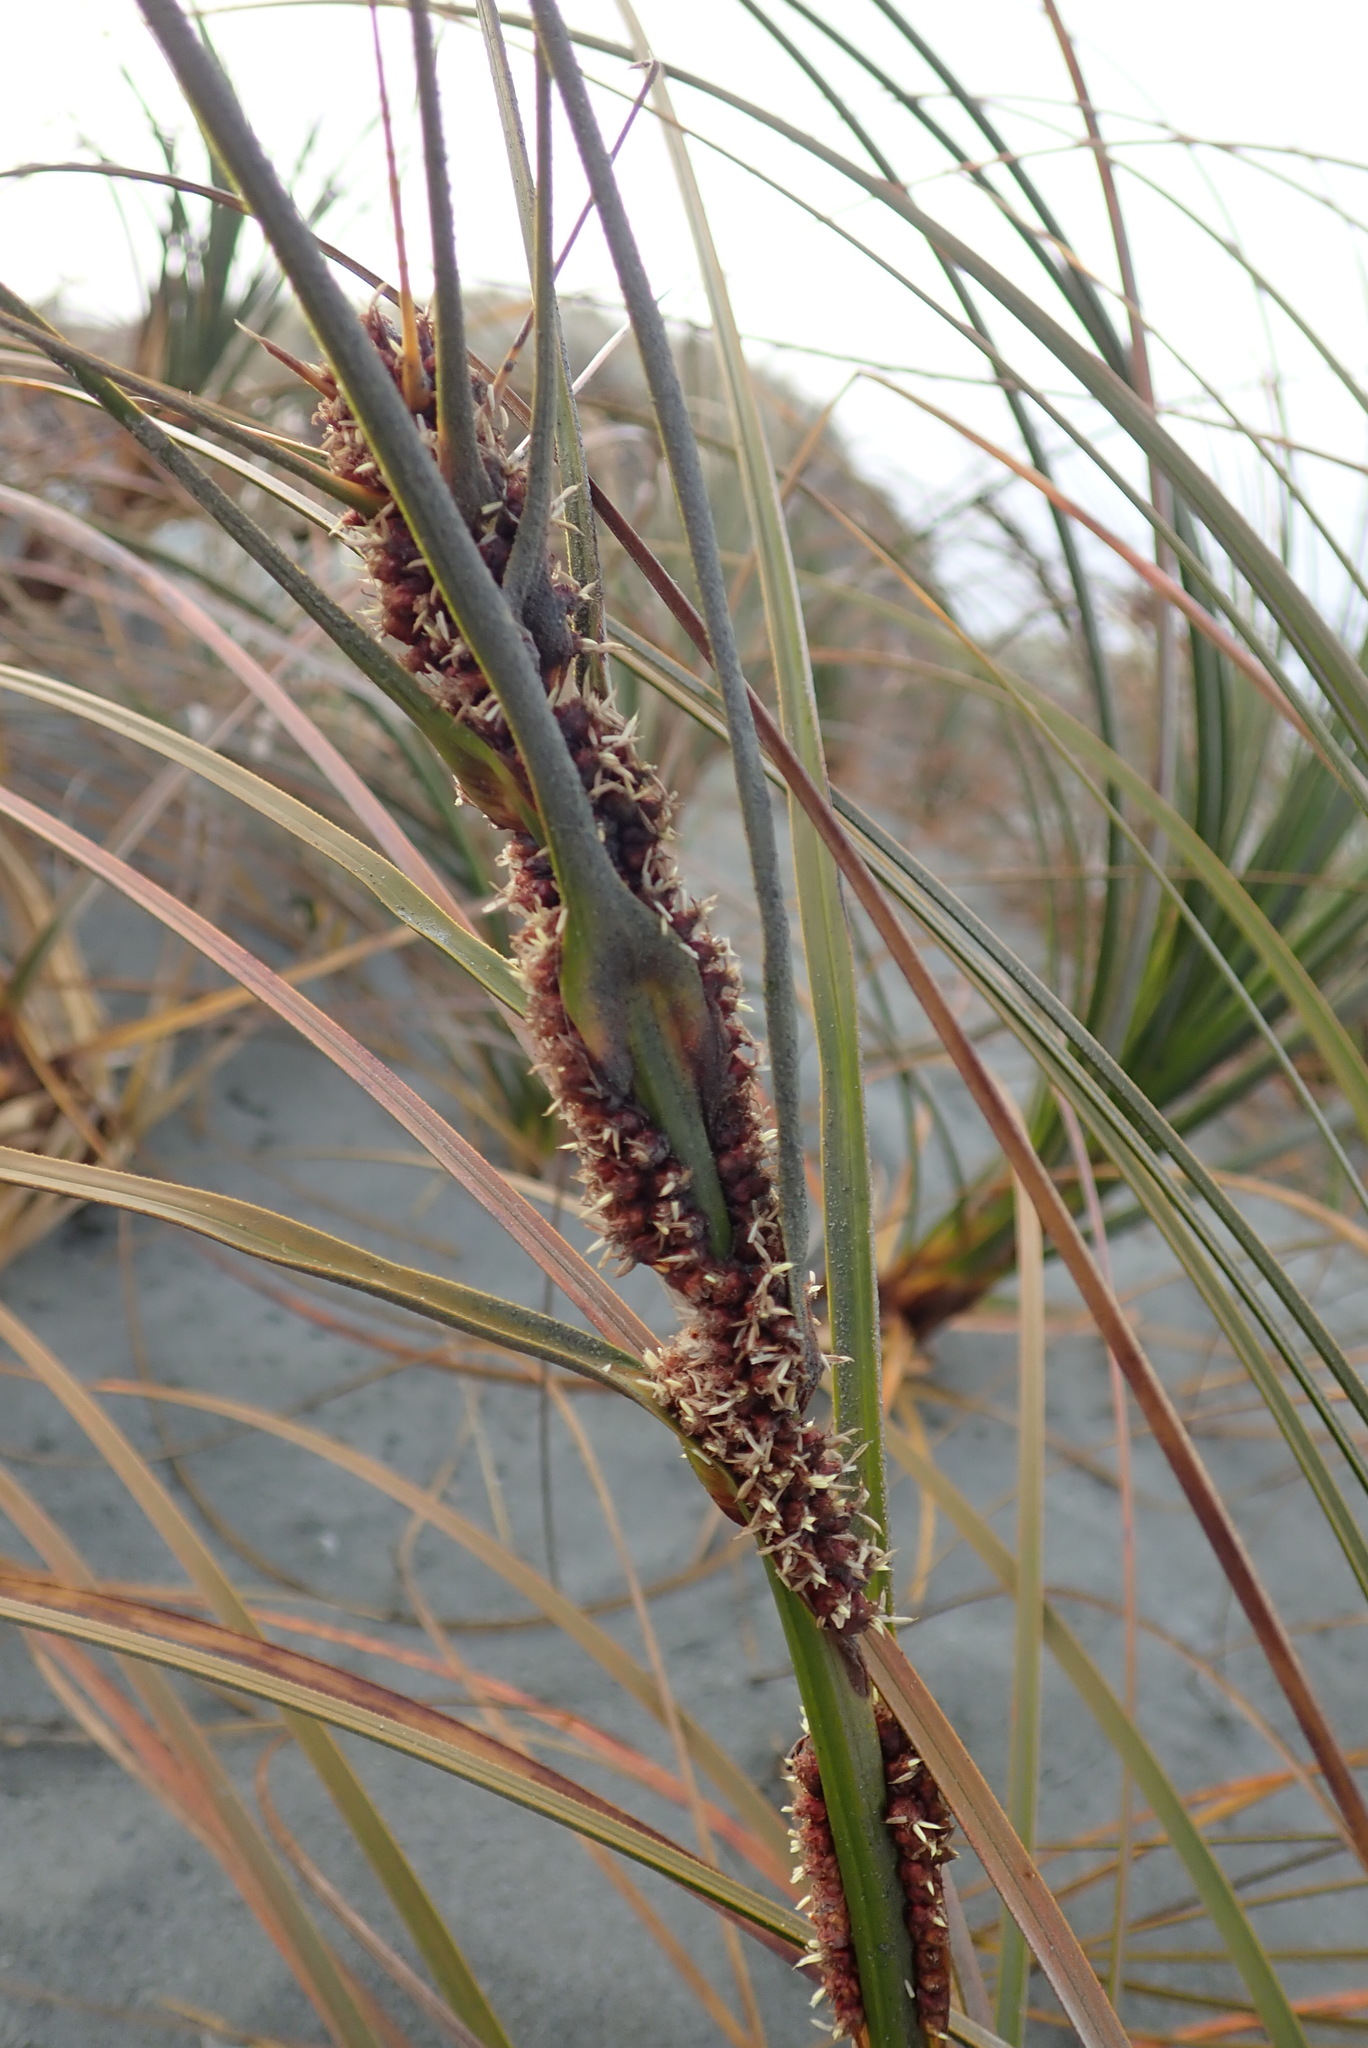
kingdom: Plantae
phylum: Tracheophyta
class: Liliopsida
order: Poales
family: Cyperaceae
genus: Ficinia
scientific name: Ficinia spiralis
